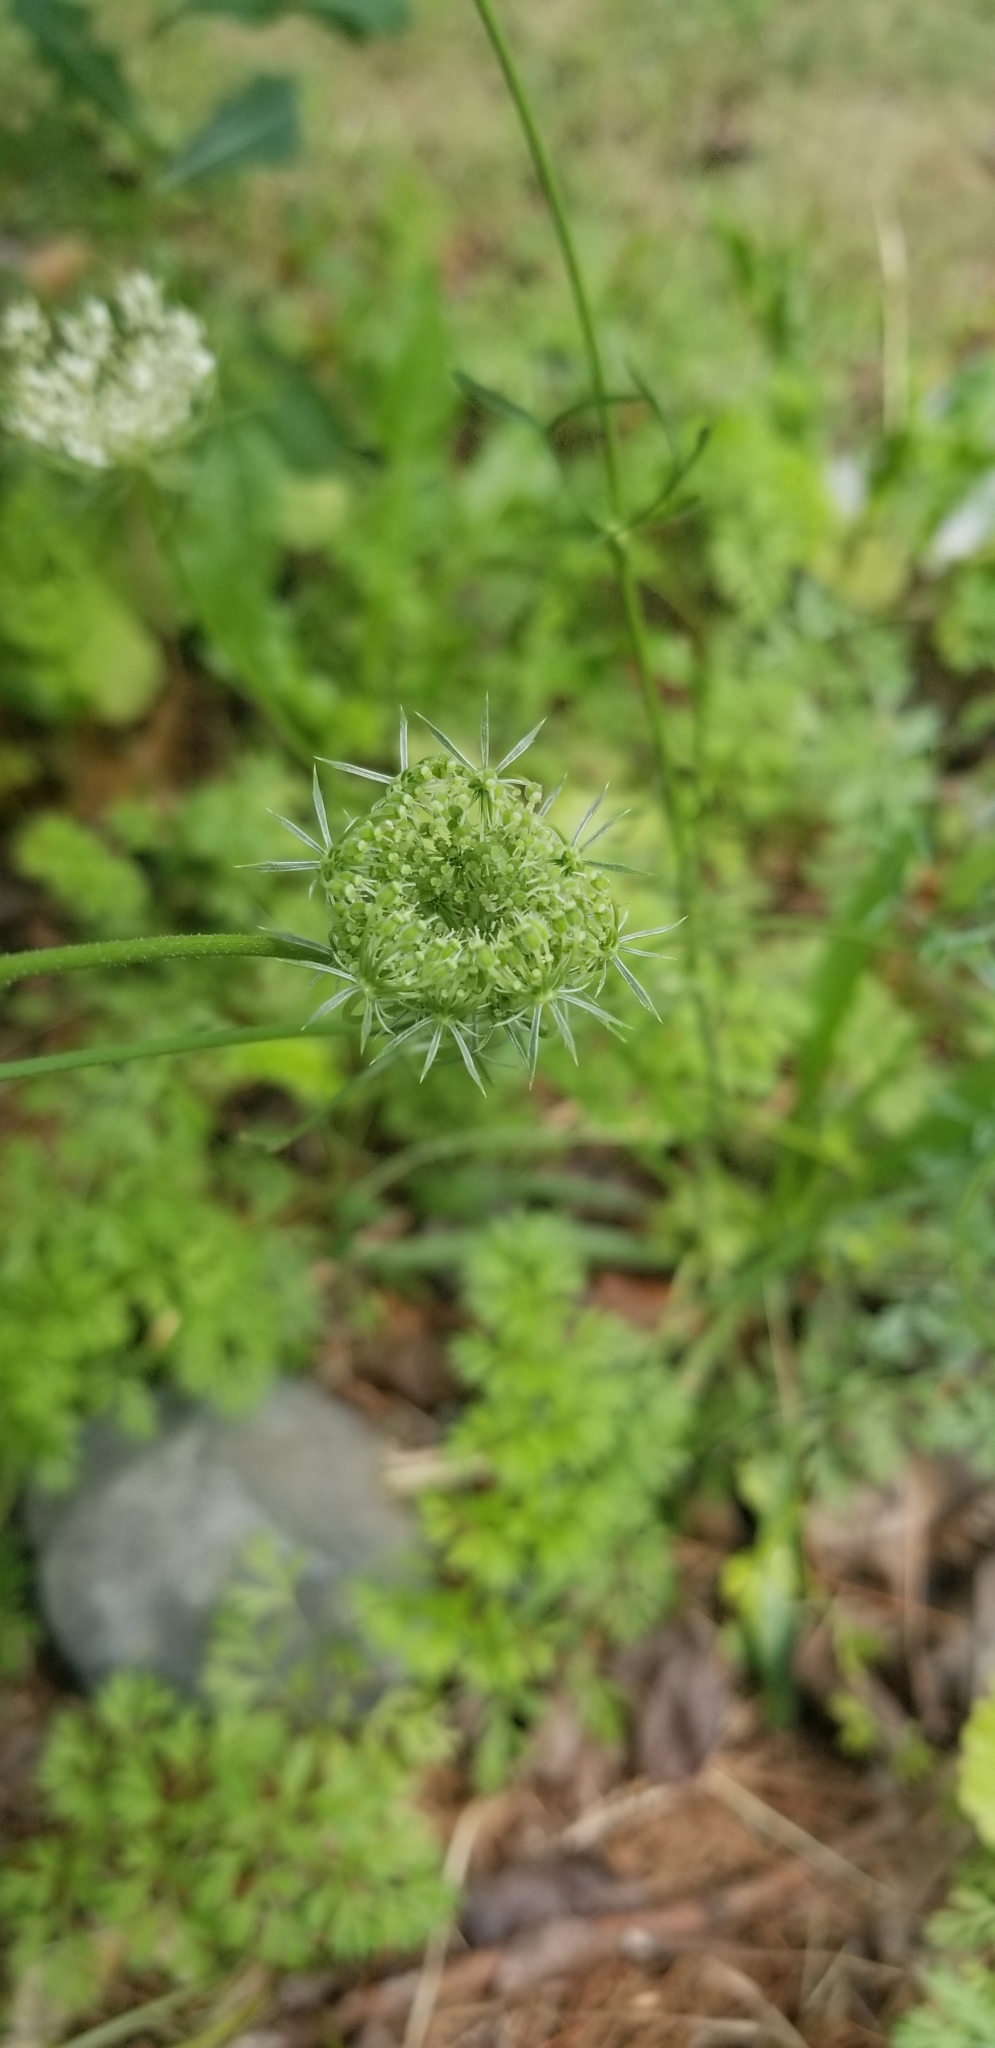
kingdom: Plantae
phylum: Tracheophyta
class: Magnoliopsida
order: Apiales
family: Apiaceae
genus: Daucus
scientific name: Daucus carota
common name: Wild carrot
